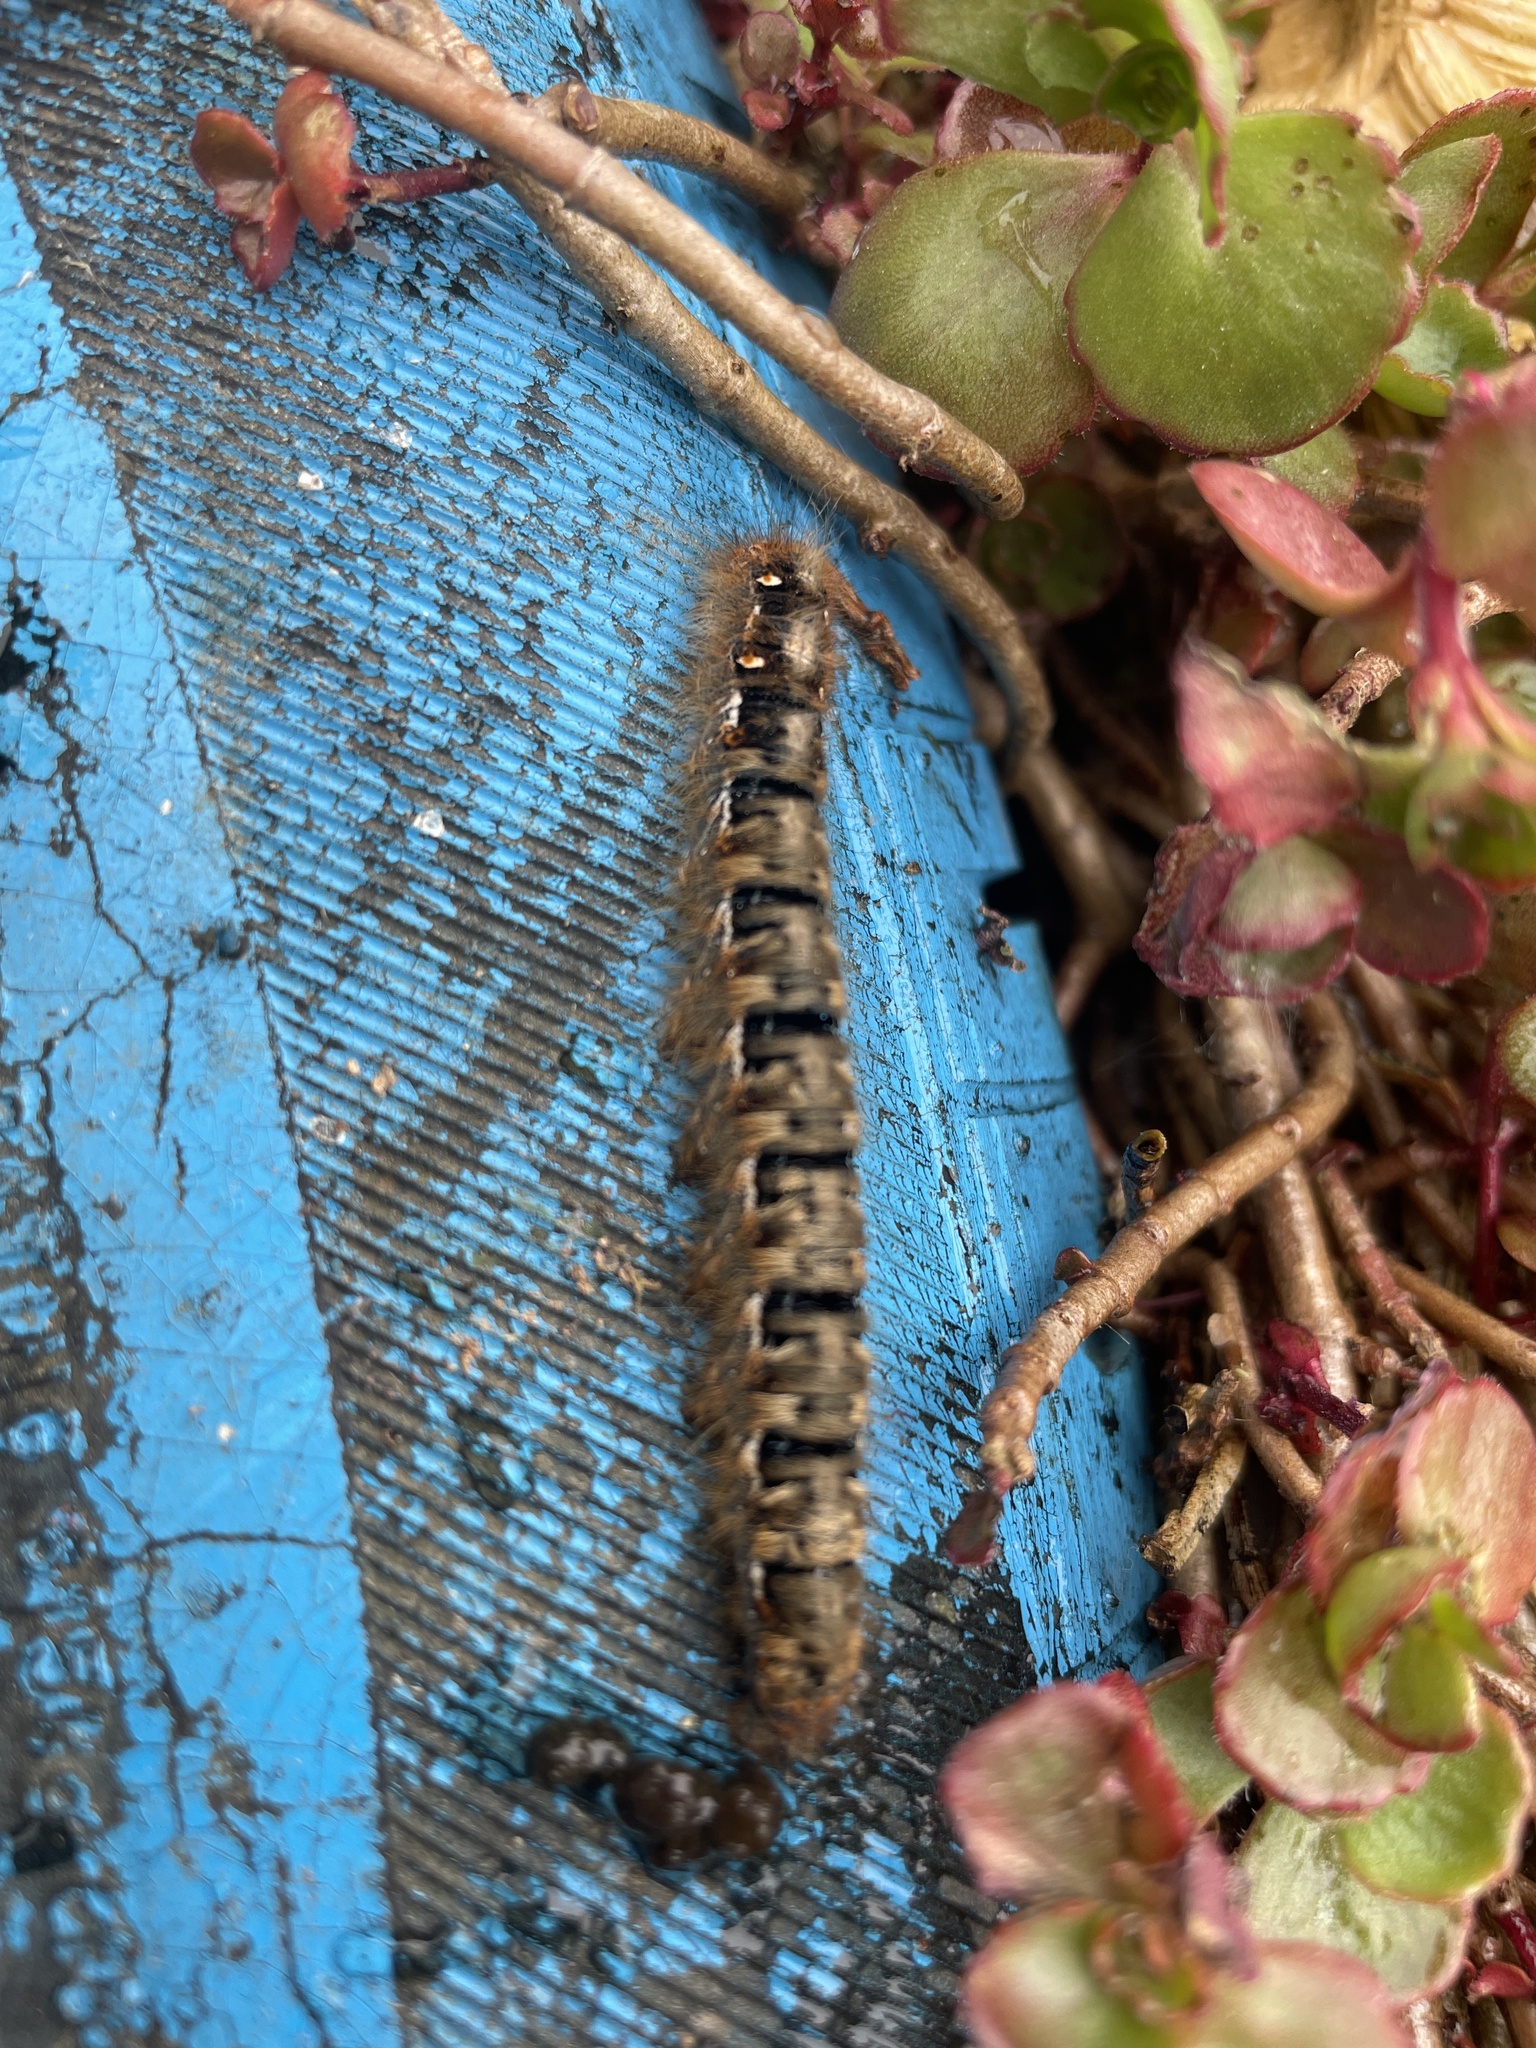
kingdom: Animalia
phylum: Arthropoda
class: Insecta
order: Lepidoptera
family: Lasiocampidae
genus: Lasiocampa
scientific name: Lasiocampa quercus
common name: Oak eggar
